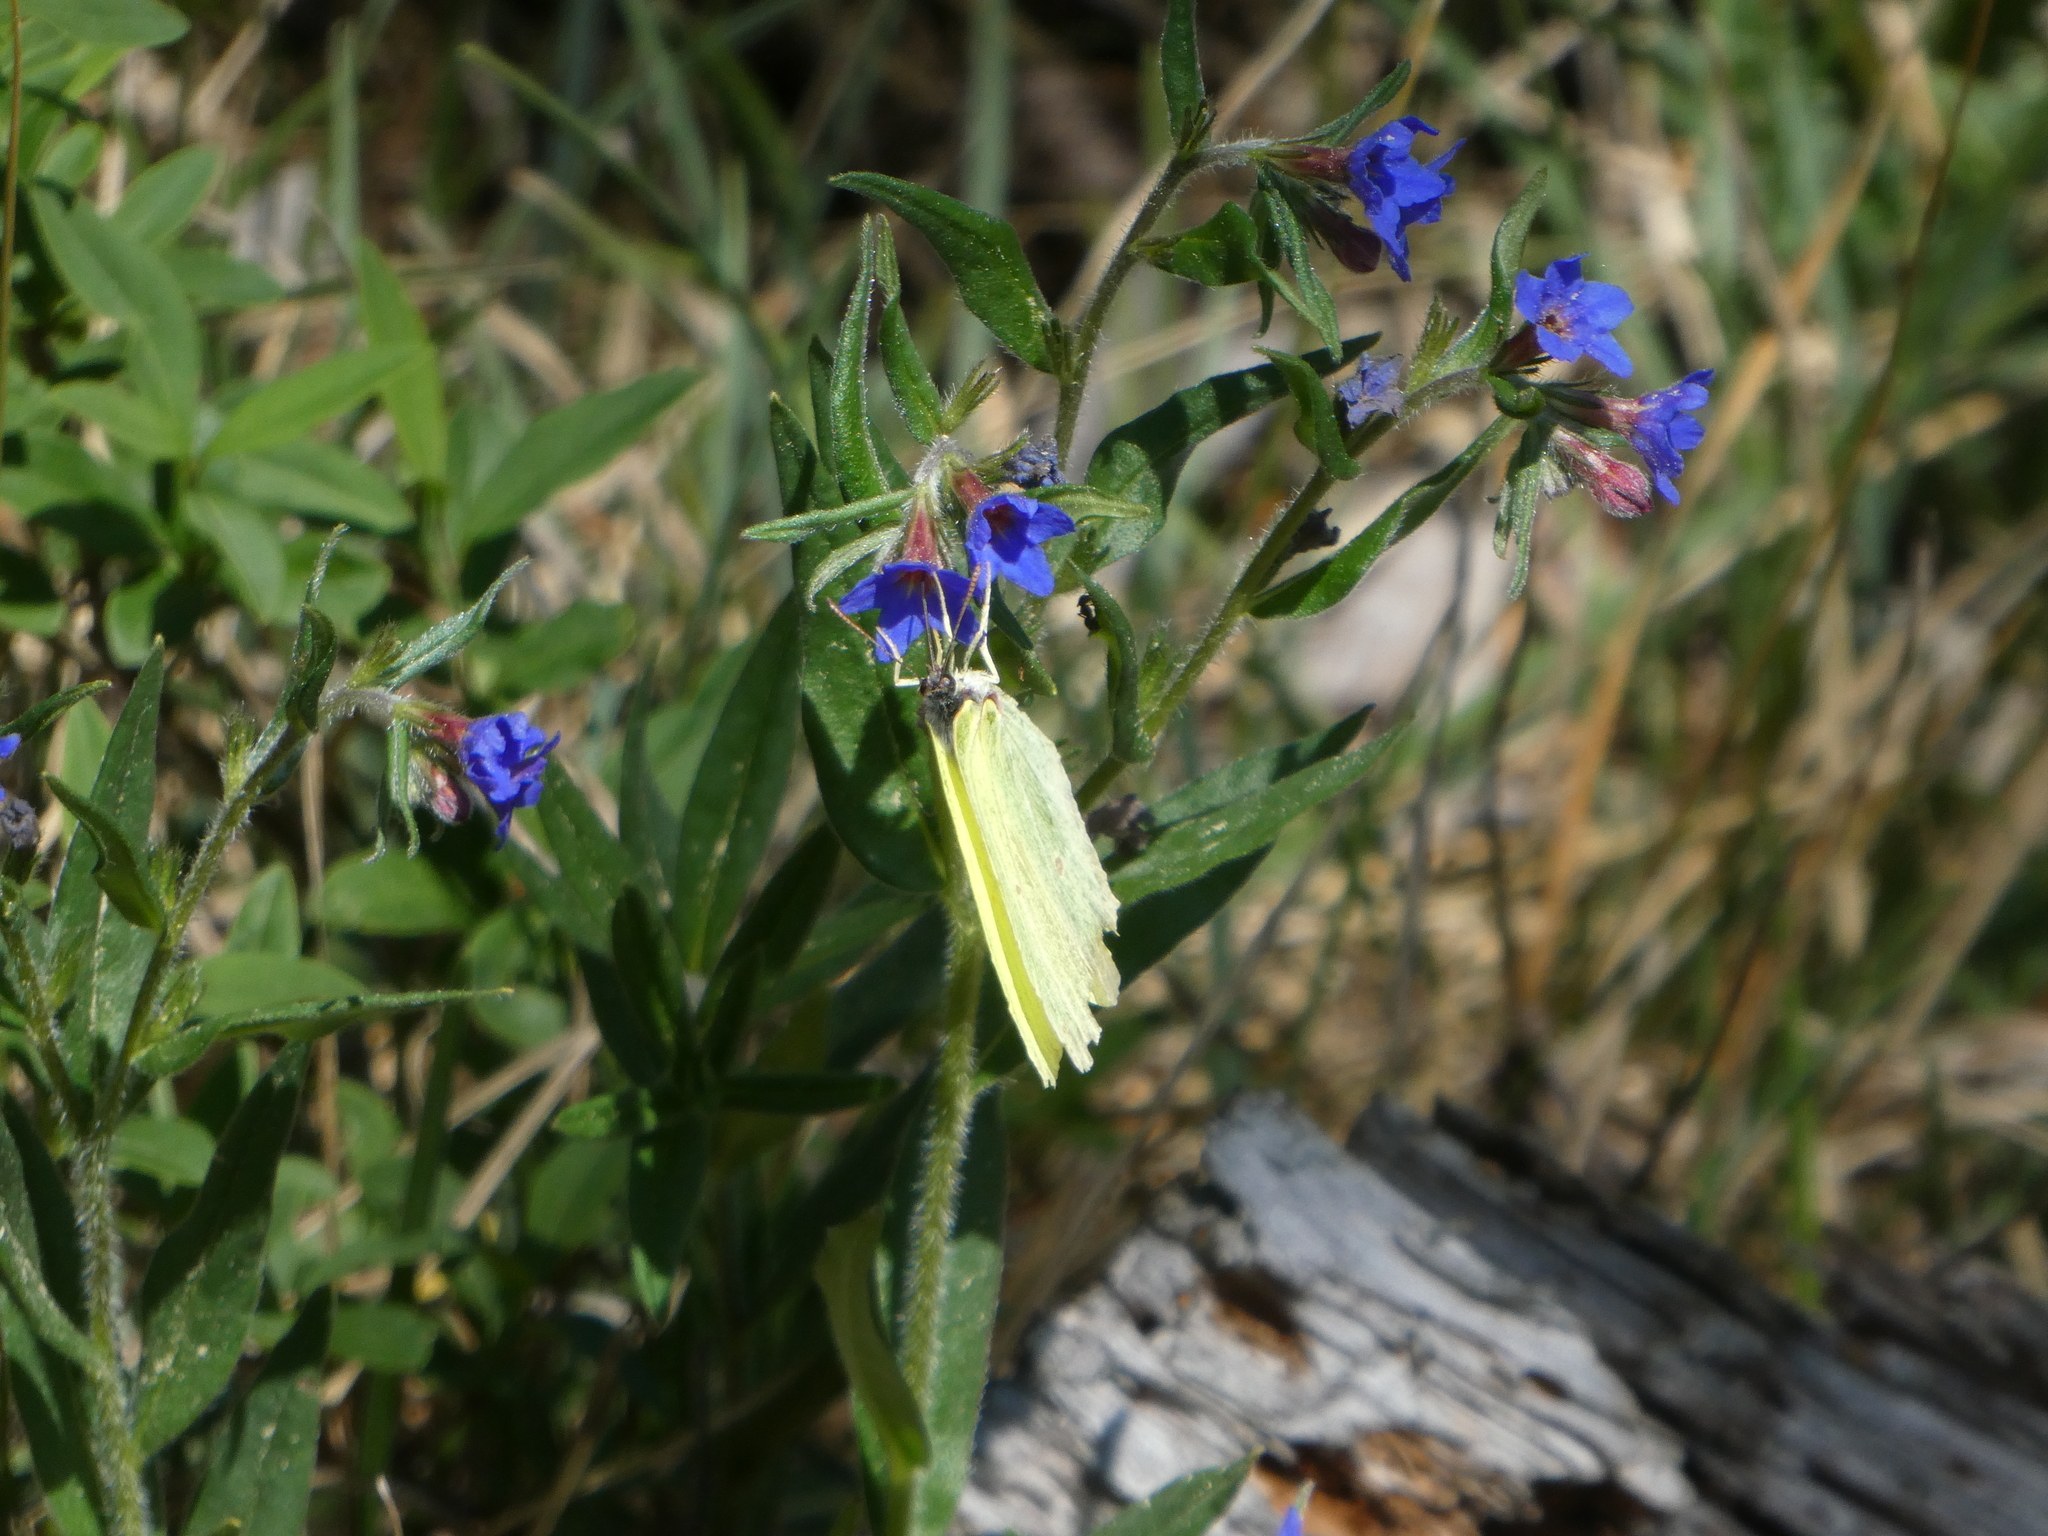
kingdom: Animalia
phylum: Arthropoda
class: Insecta
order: Lepidoptera
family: Pieridae
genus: Gonepteryx
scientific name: Gonepteryx rhamni
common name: Brimstone
